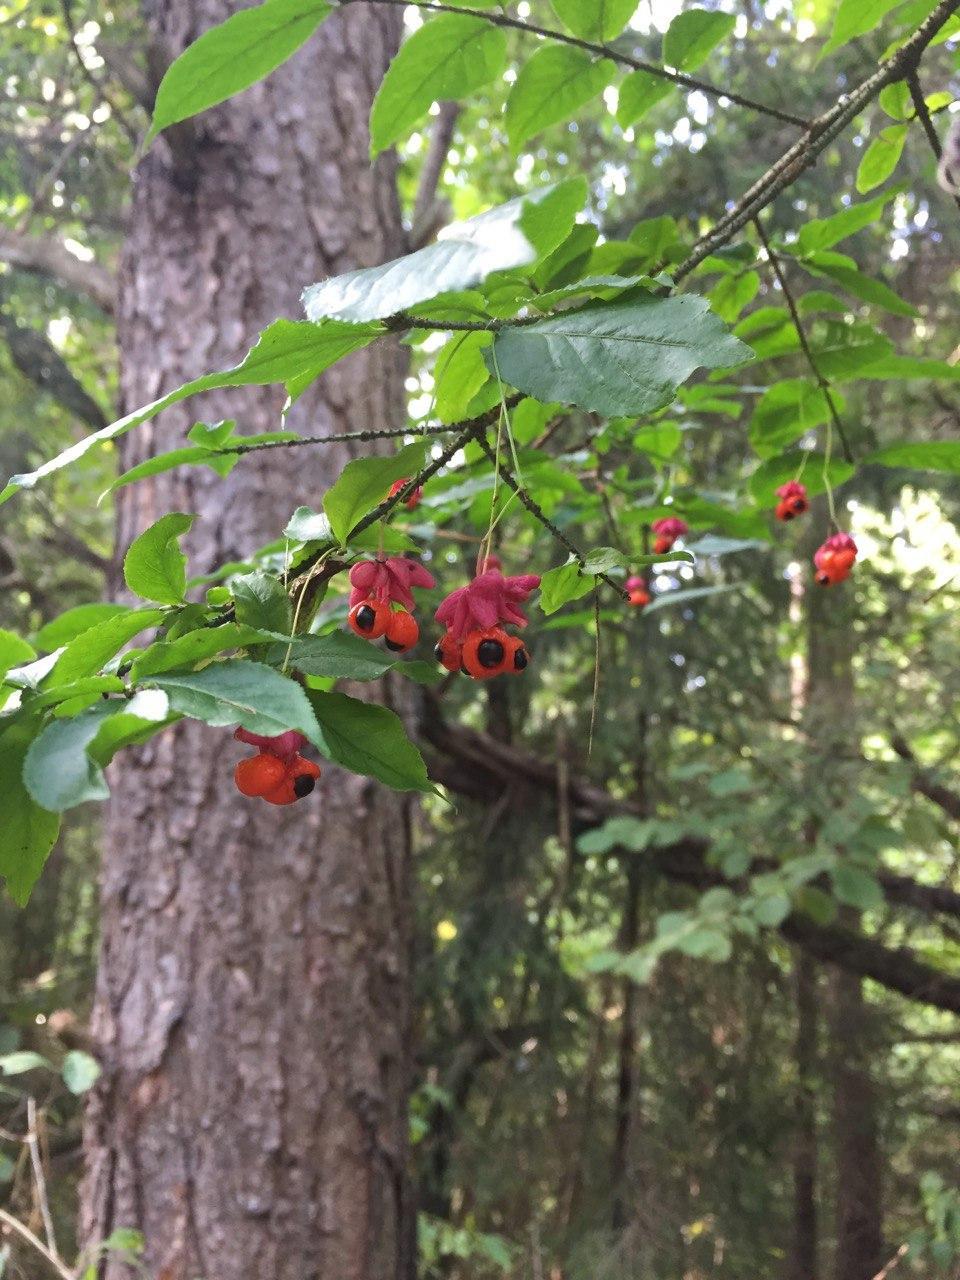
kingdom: Plantae
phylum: Tracheophyta
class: Magnoliopsida
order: Celastrales
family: Celastraceae
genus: Euonymus
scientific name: Euonymus verrucosus
